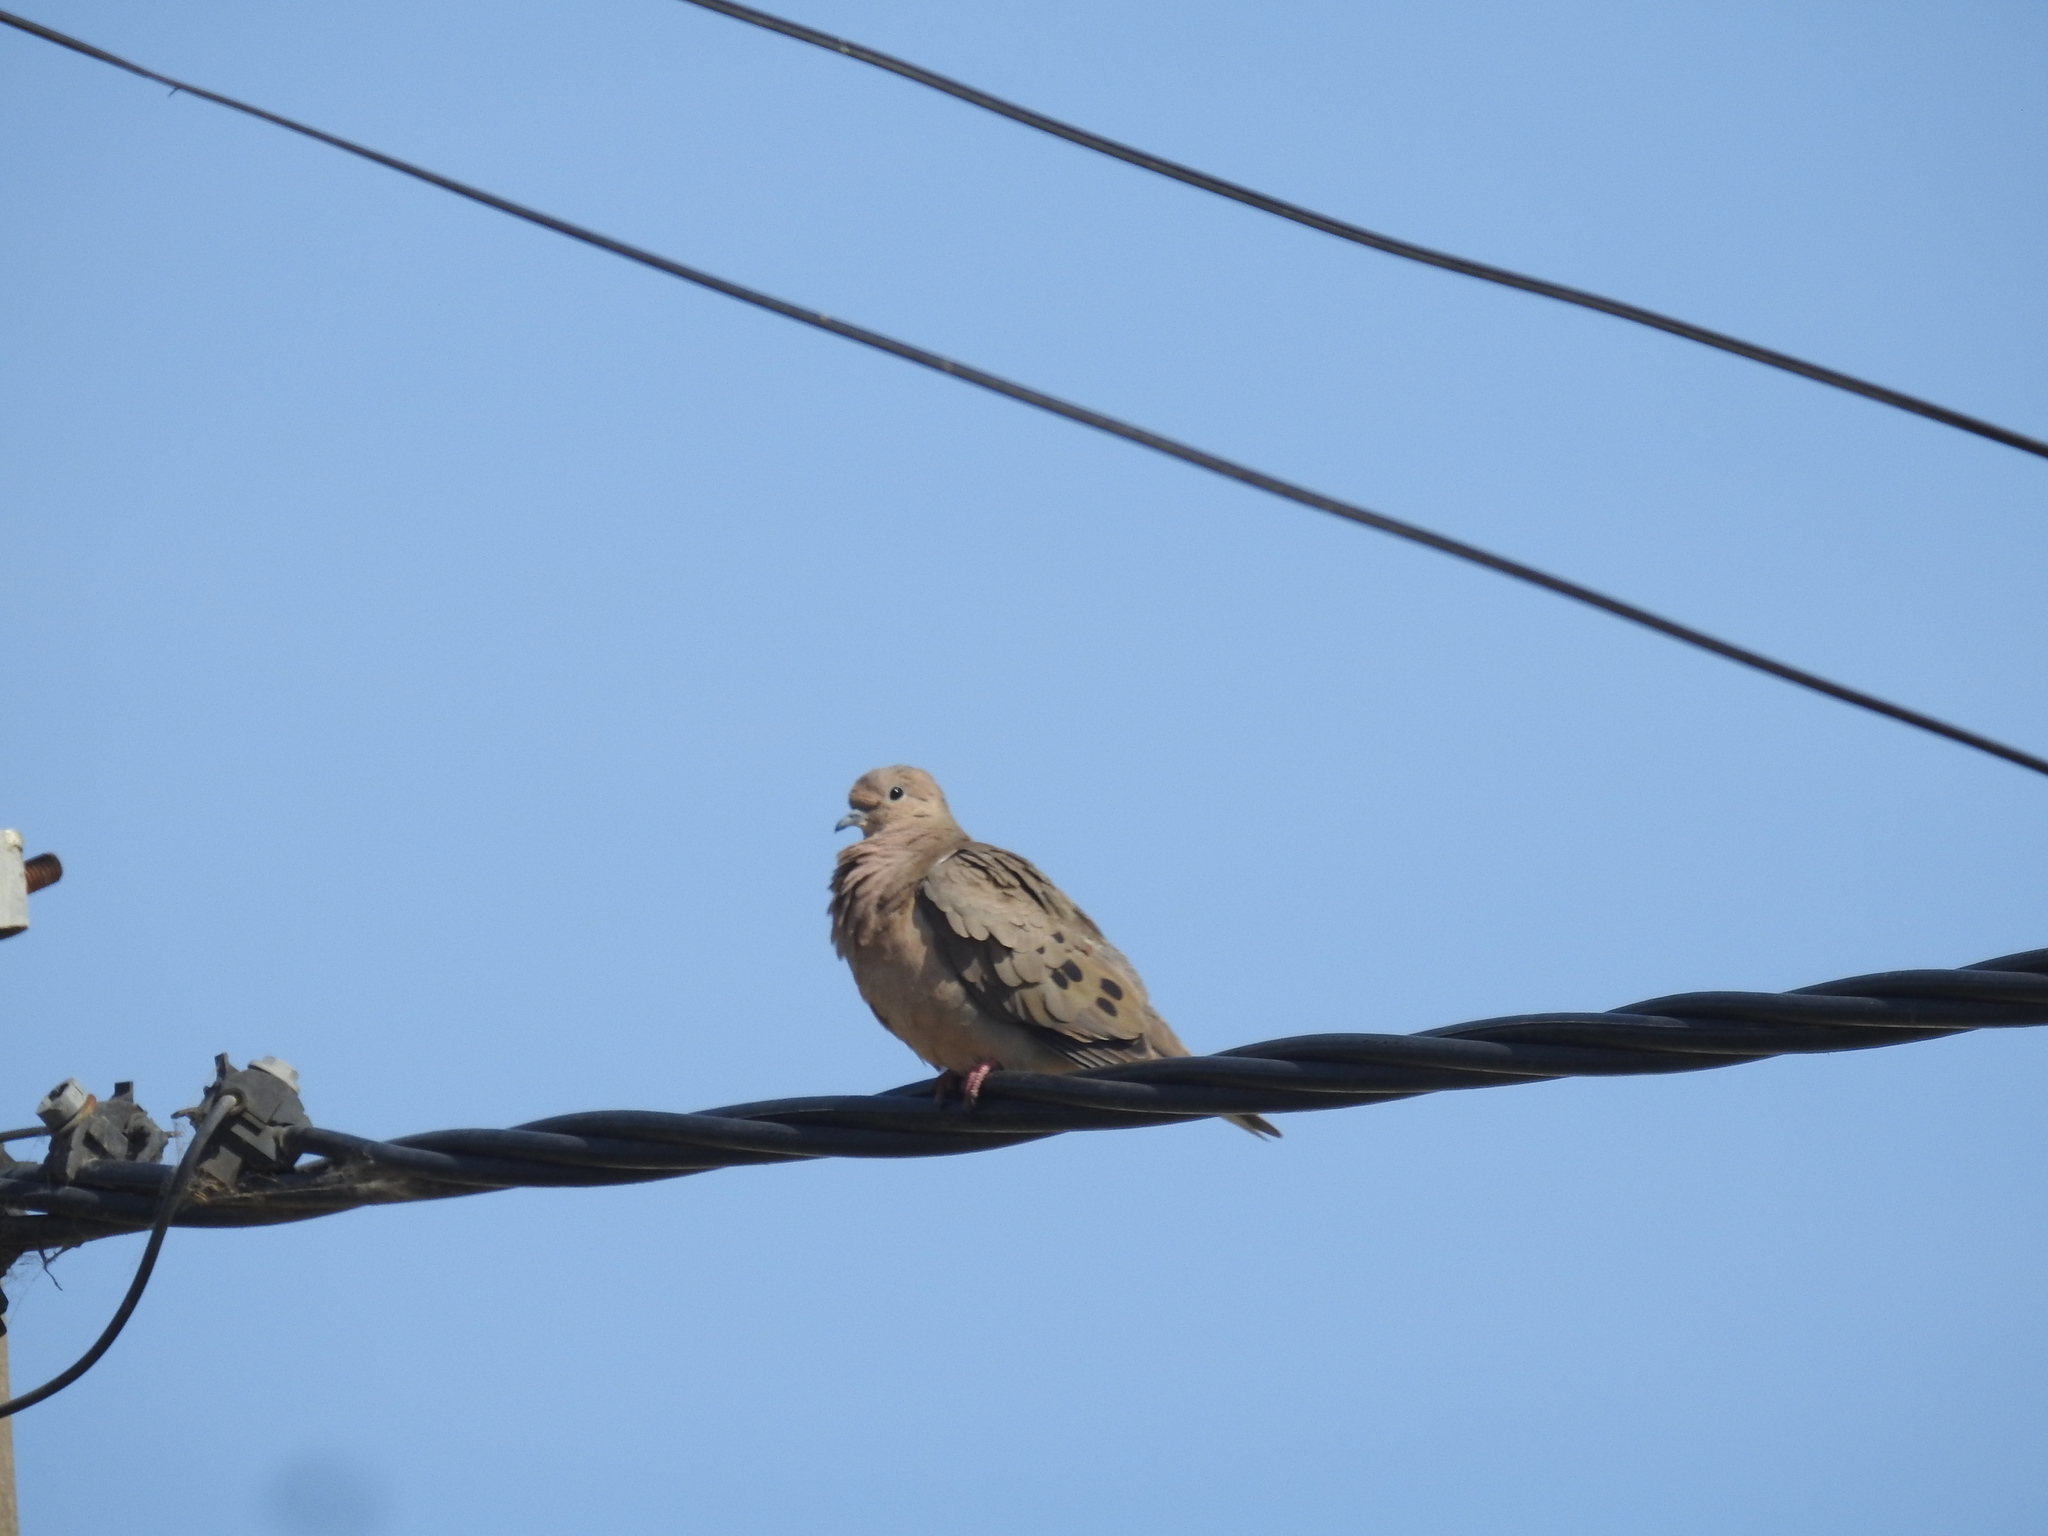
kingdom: Animalia
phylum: Chordata
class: Aves
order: Columbiformes
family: Columbidae
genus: Zenaida
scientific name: Zenaida auriculata
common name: Eared dove
